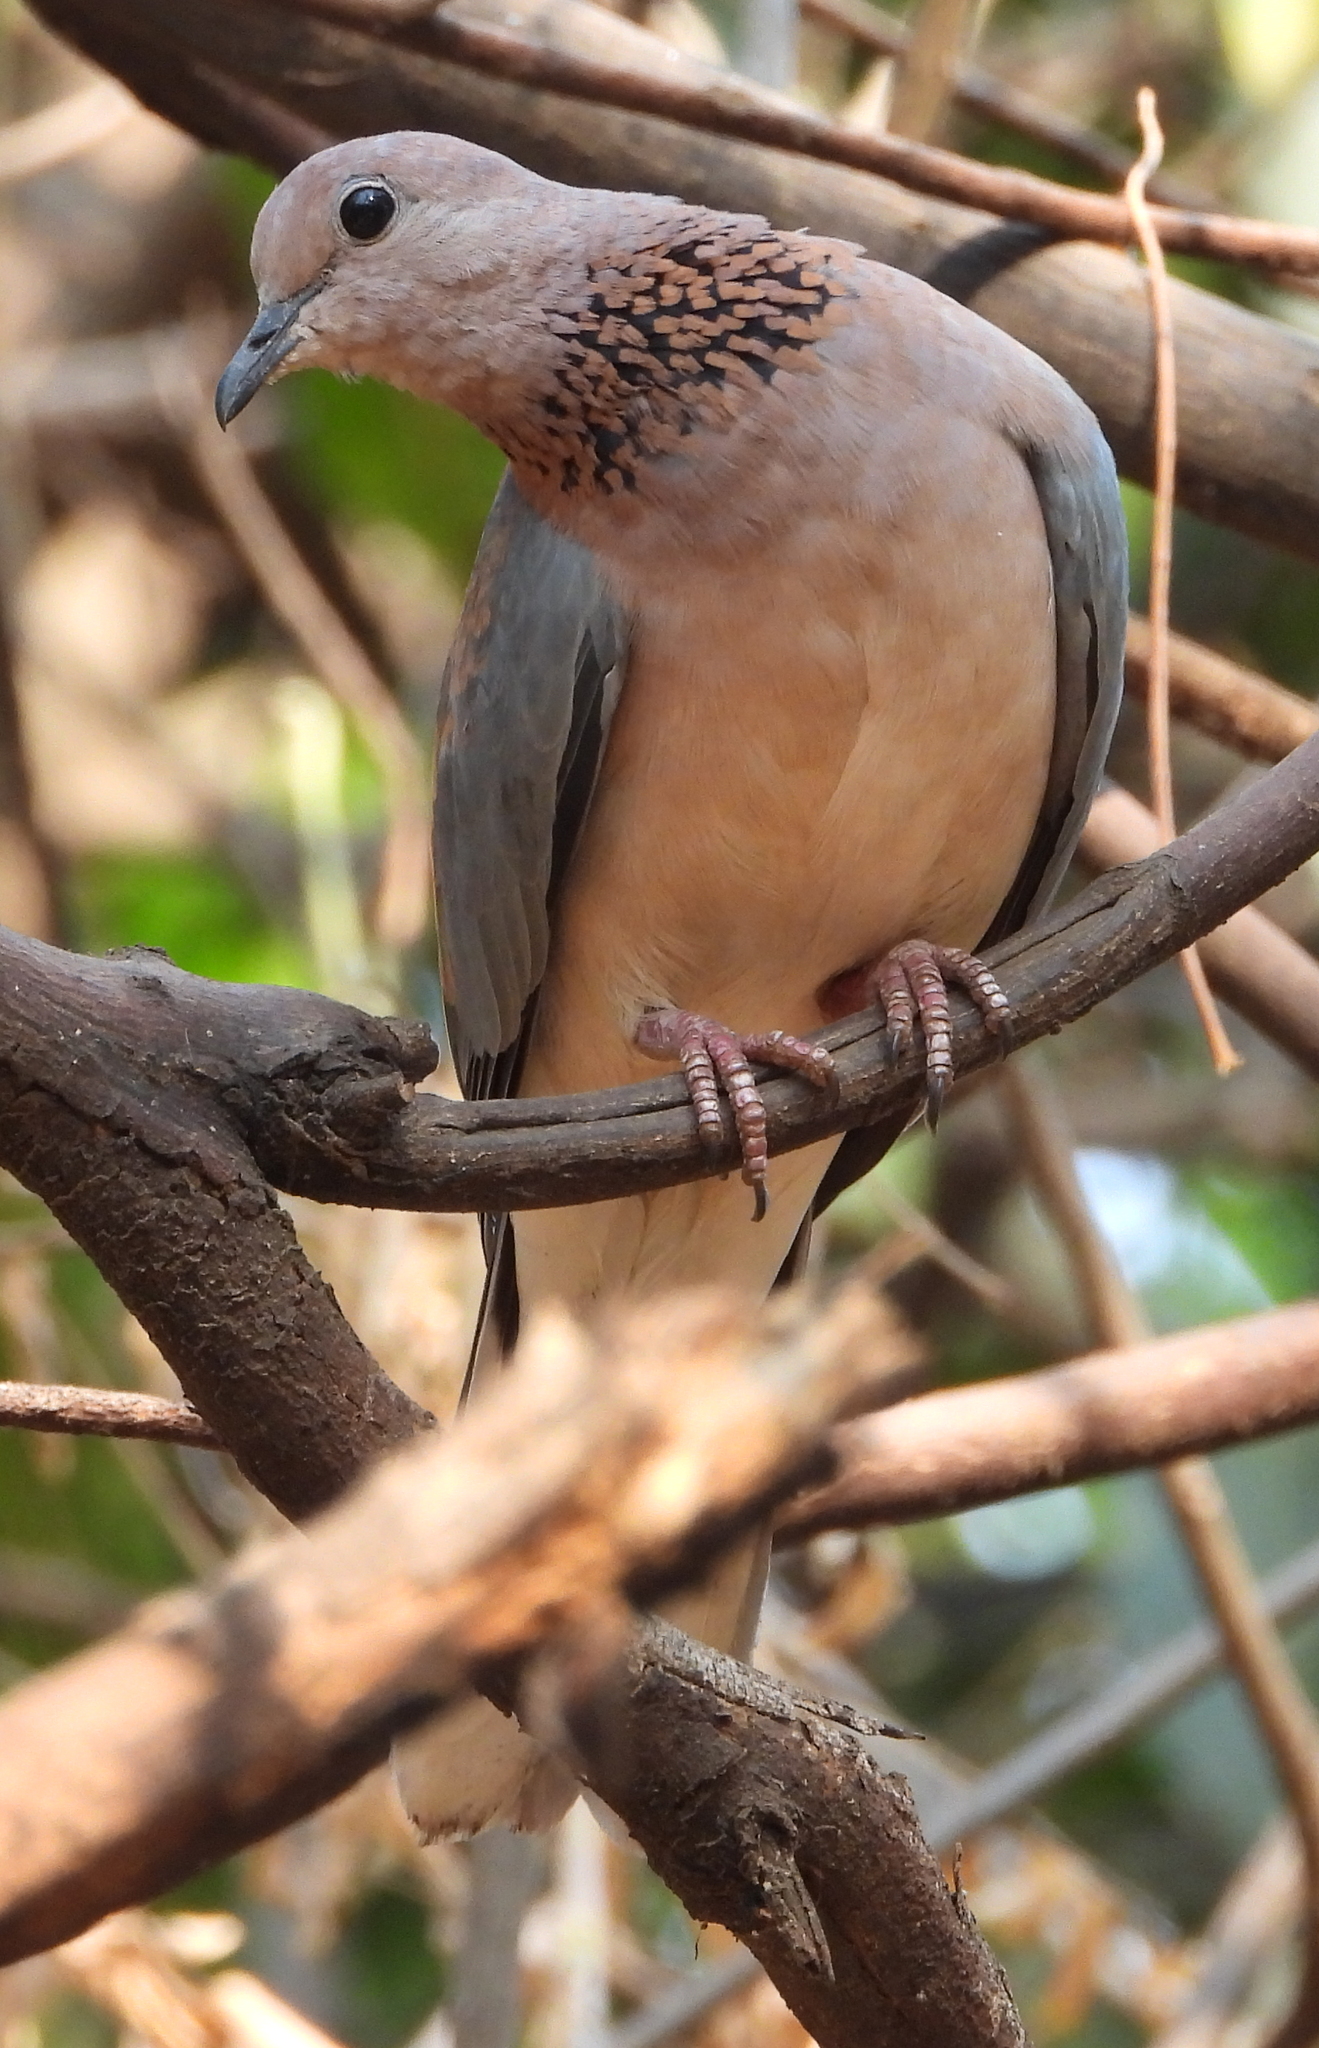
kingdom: Animalia
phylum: Chordata
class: Aves
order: Columbiformes
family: Columbidae
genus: Spilopelia
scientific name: Spilopelia senegalensis
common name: Laughing dove
